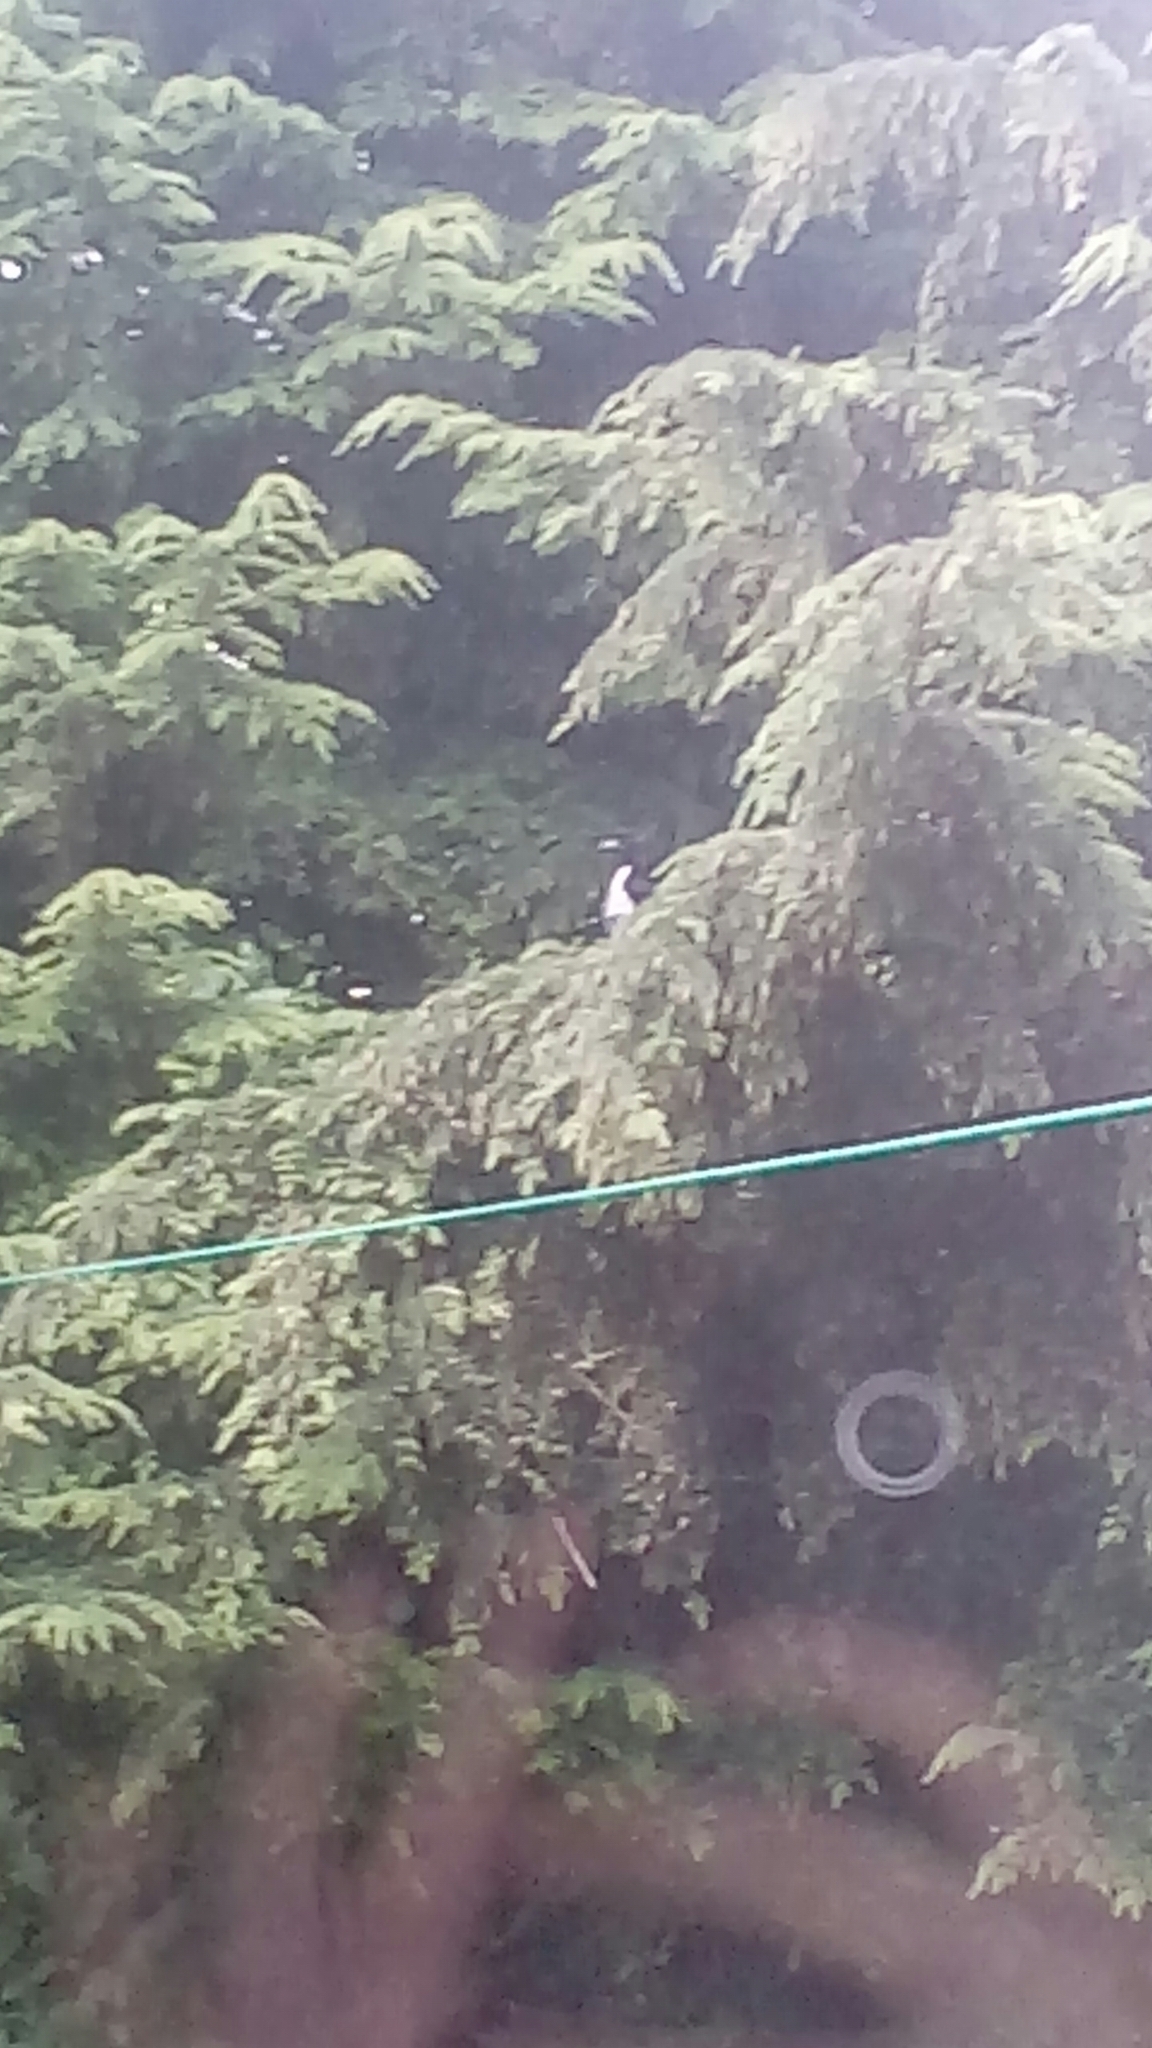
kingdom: Animalia
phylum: Chordata
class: Aves
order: Passeriformes
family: Corvidae
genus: Pica
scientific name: Pica pica
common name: Eurasian magpie
